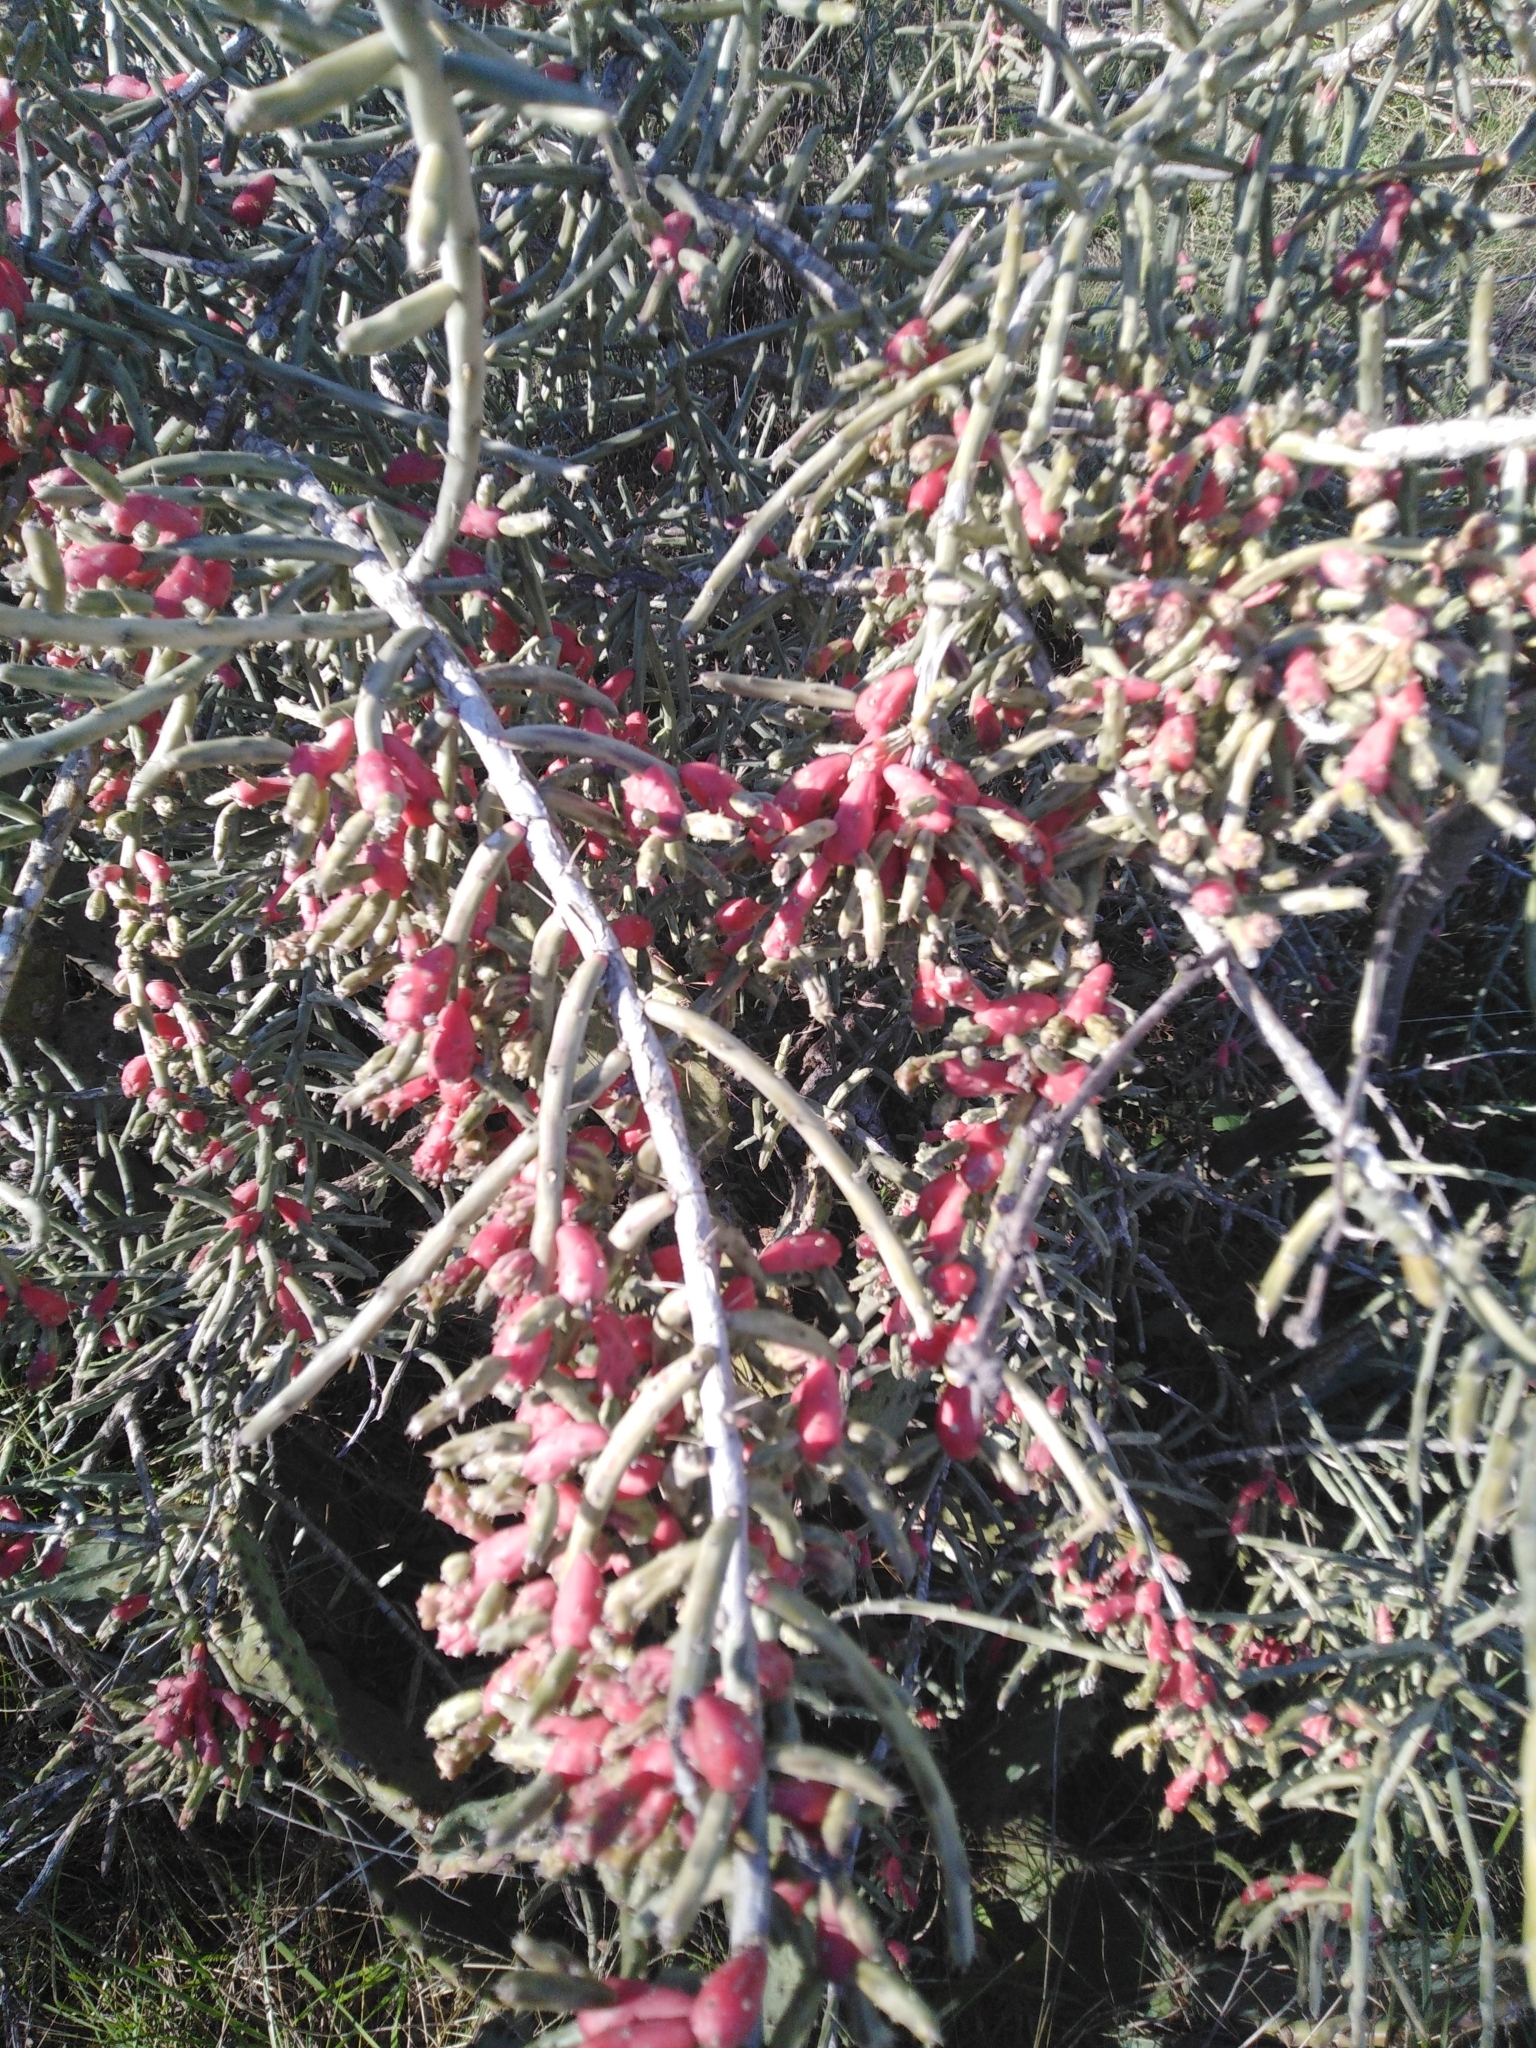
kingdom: Plantae
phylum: Tracheophyta
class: Magnoliopsida
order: Caryophyllales
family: Cactaceae
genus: Cylindropuntia
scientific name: Cylindropuntia leptocaulis
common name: Christmas cactus
